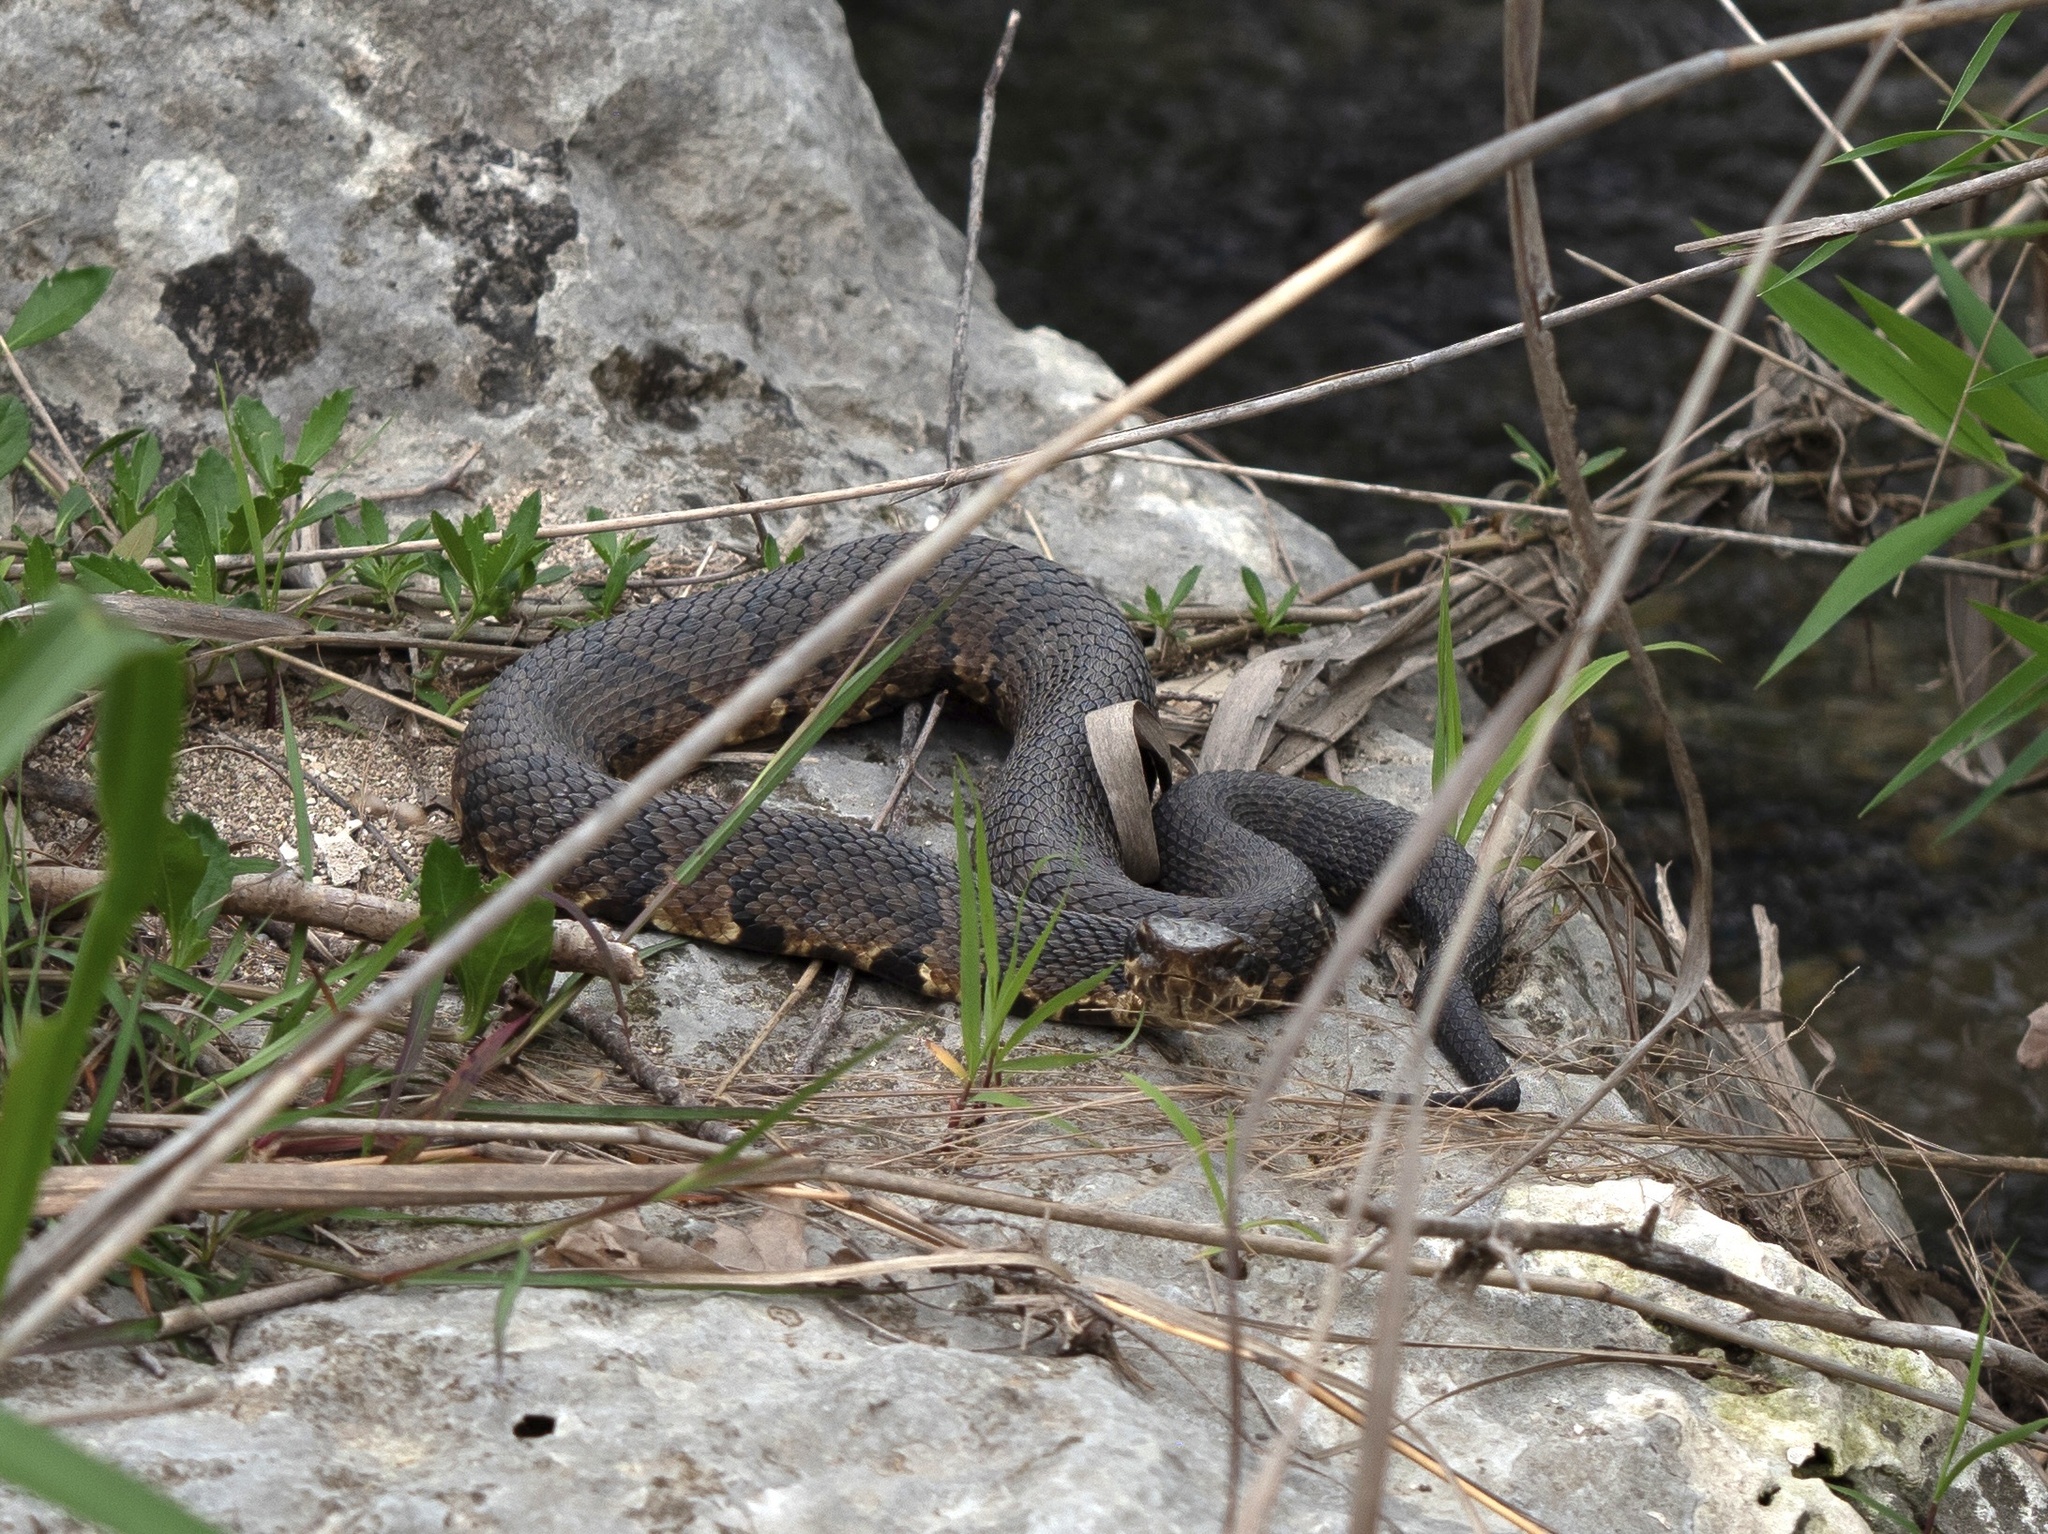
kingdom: Animalia
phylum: Chordata
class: Squamata
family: Viperidae
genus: Agkistrodon
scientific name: Agkistrodon piscivorus
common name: Cottonmouth
